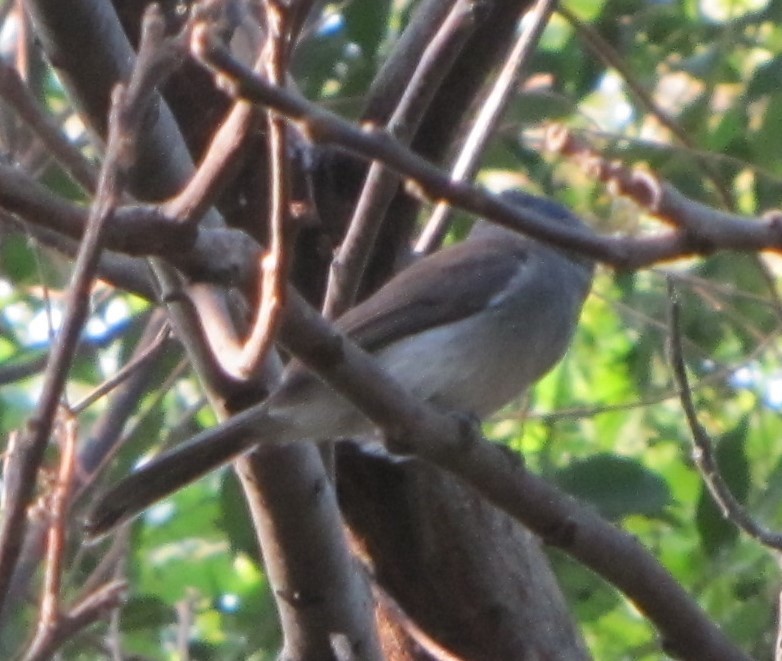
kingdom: Animalia
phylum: Chordata
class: Aves
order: Passeriformes
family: Monarchidae
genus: Hypothymis
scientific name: Hypothymis azurea
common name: Black-naped monarch
